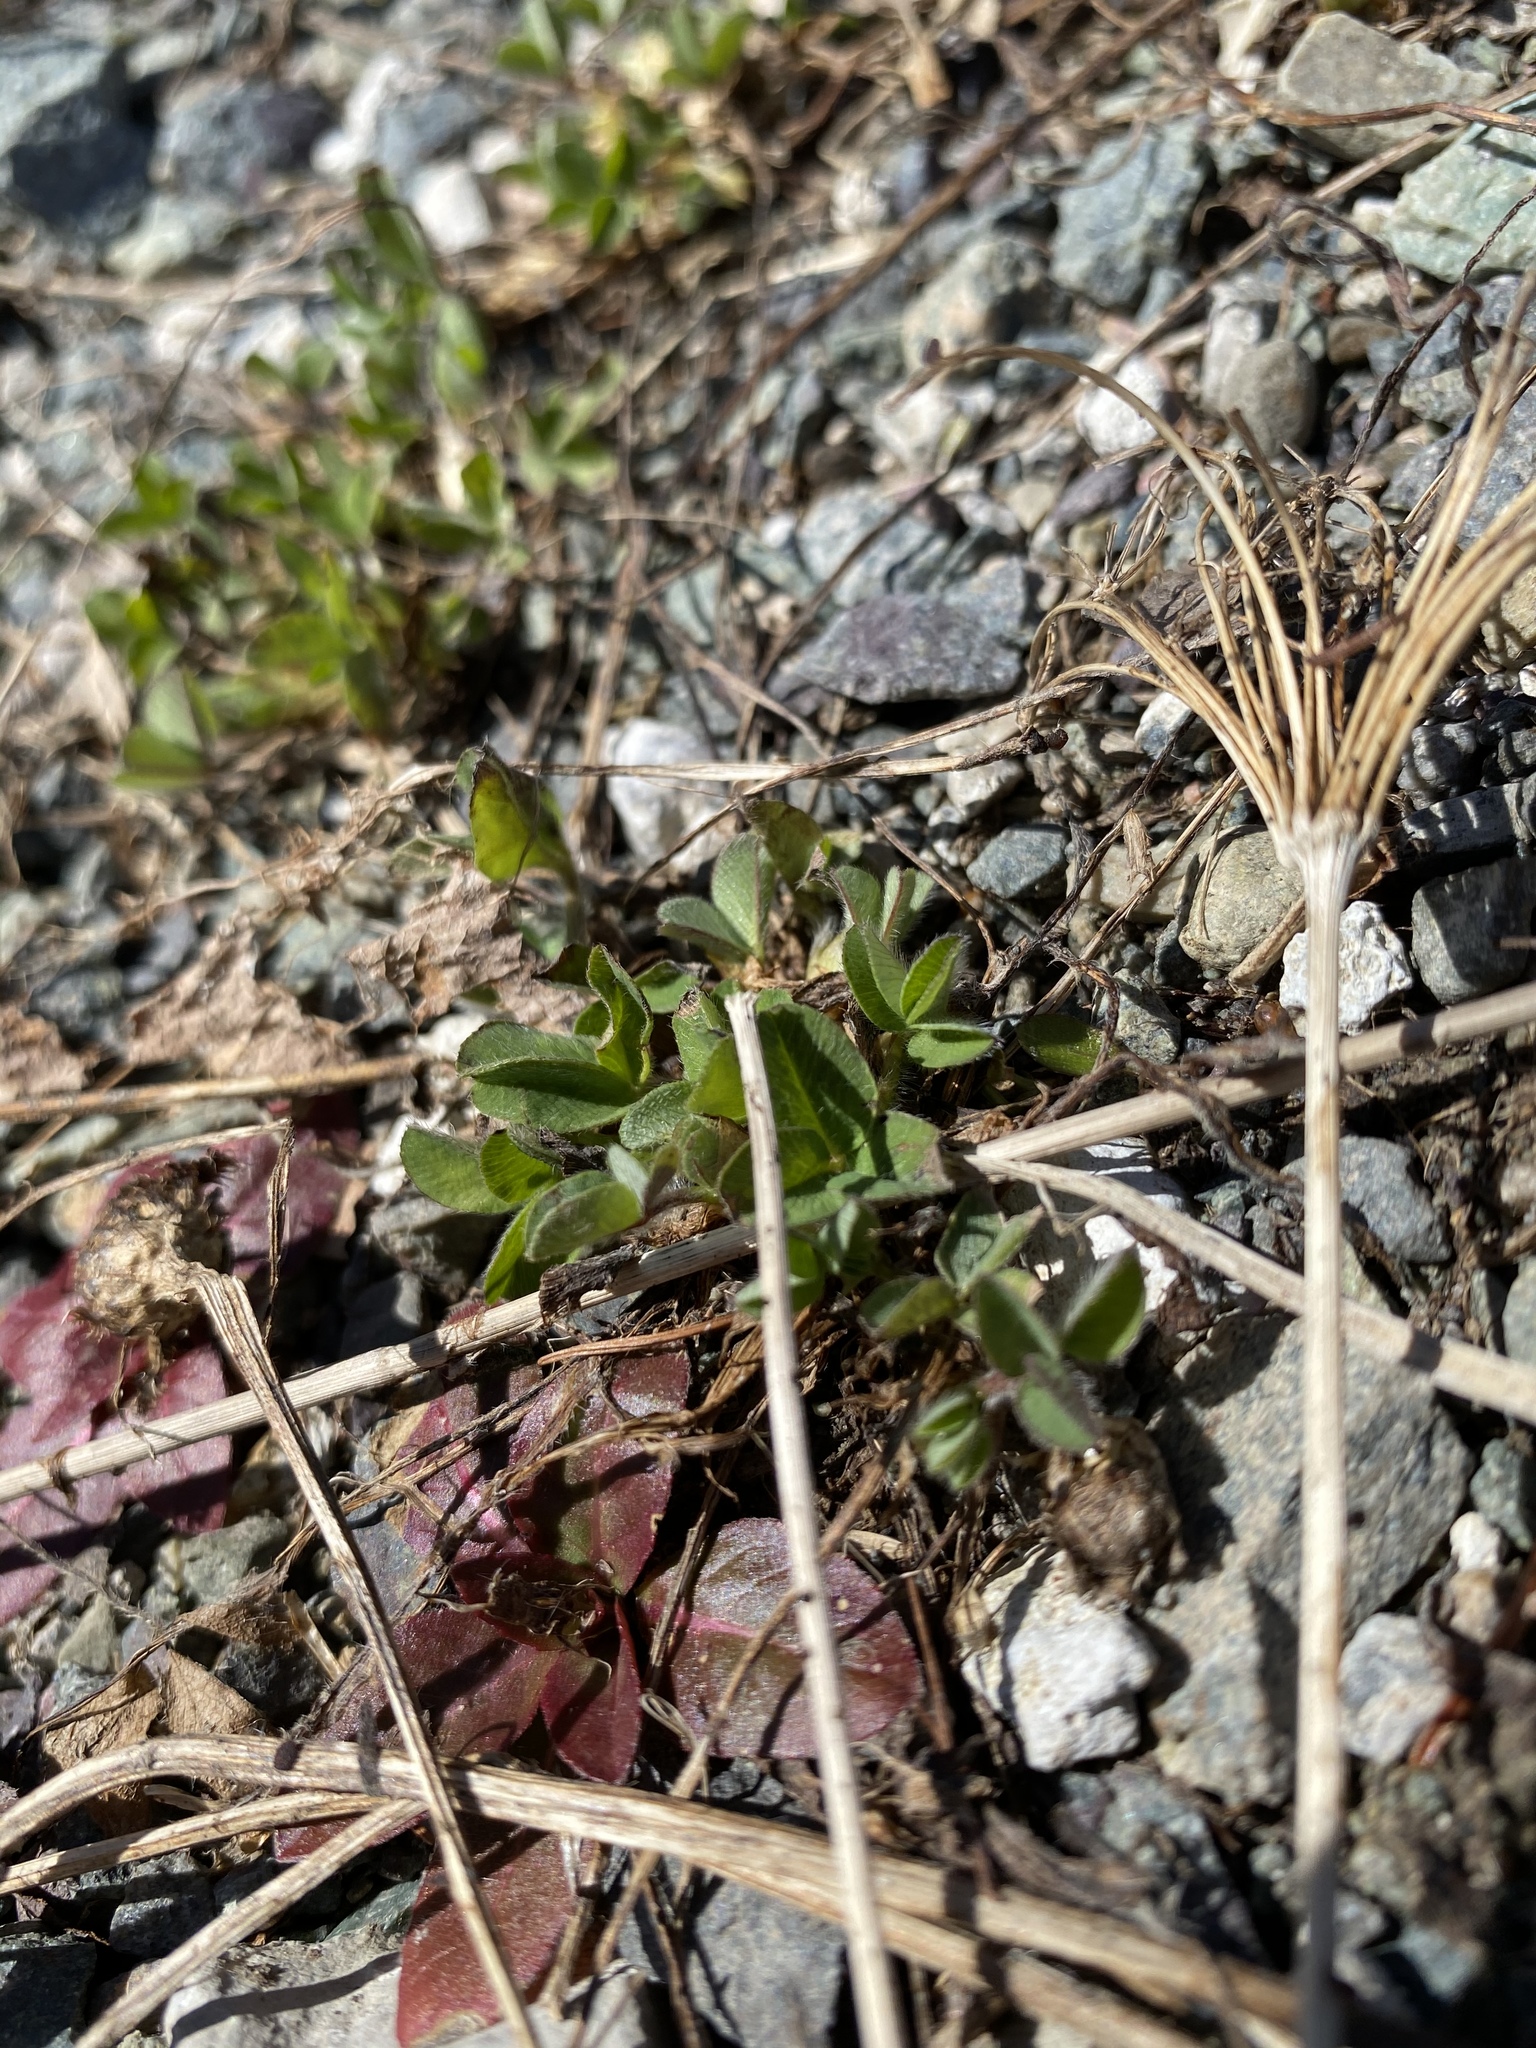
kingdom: Plantae
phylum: Tracheophyta
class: Magnoliopsida
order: Fabales
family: Fabaceae
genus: Trifolium
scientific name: Trifolium pratense
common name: Red clover
